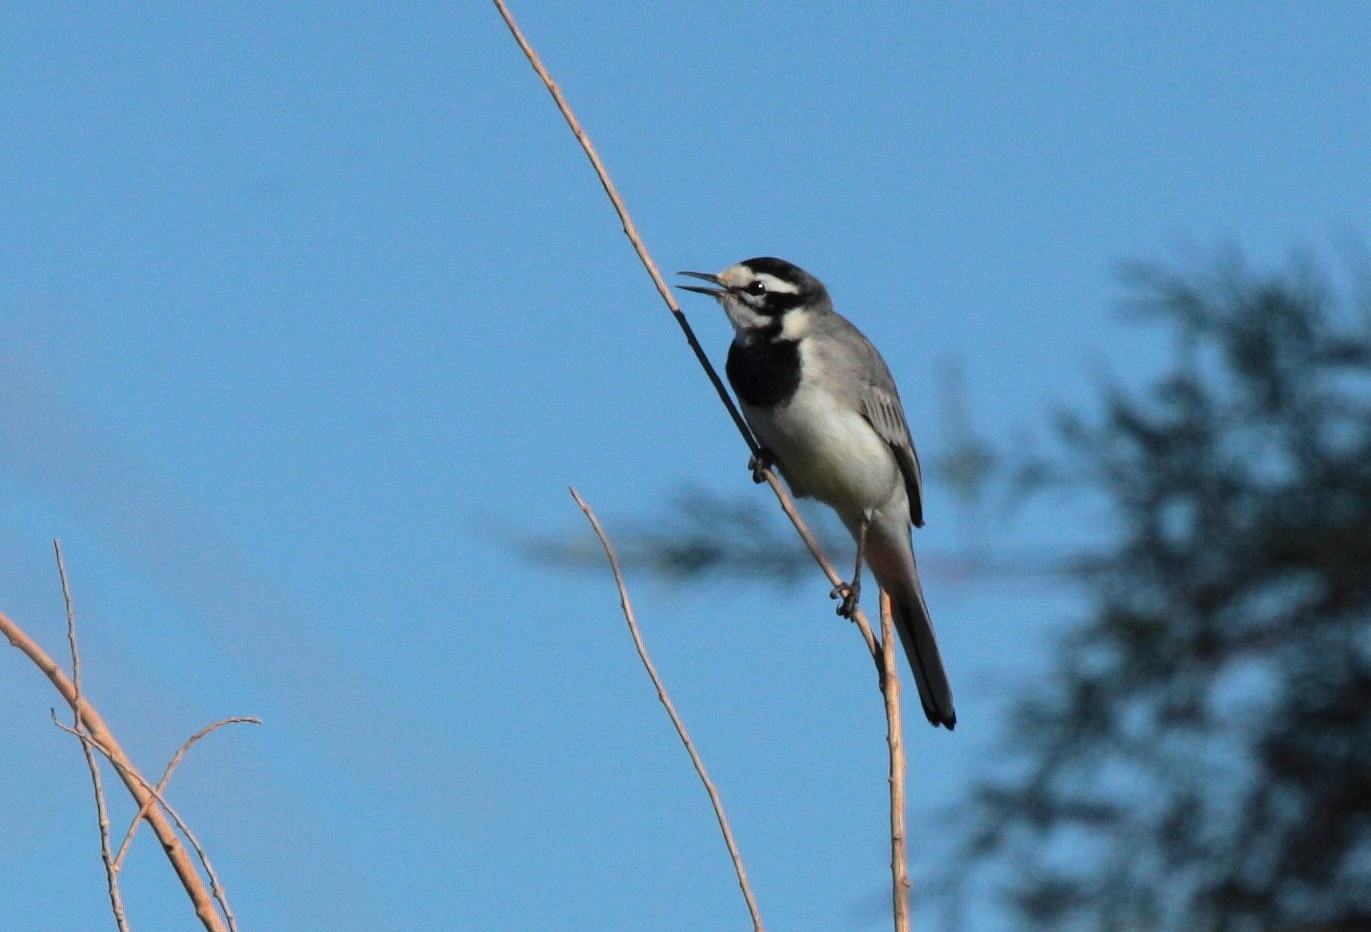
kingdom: Animalia
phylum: Chordata
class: Aves
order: Passeriformes
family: Motacillidae
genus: Motacilla
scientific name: Motacilla alba
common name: White wagtail
